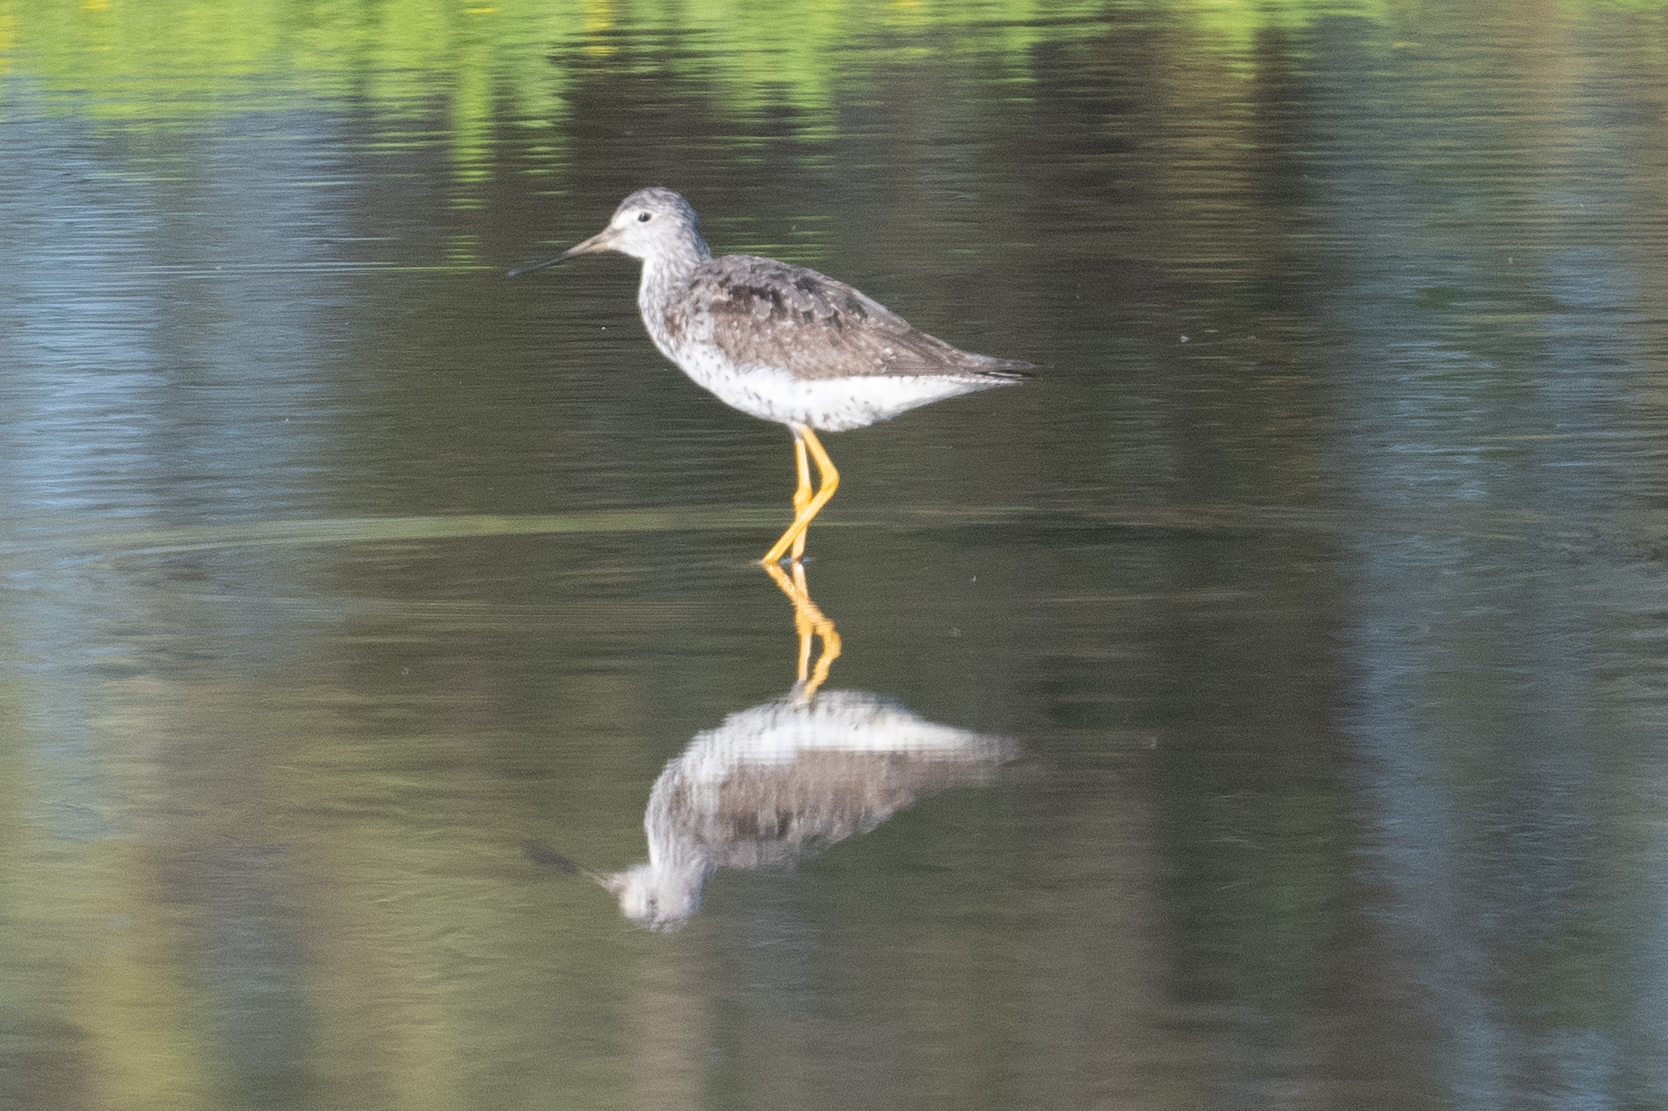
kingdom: Animalia
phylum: Chordata
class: Aves
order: Charadriiformes
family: Scolopacidae
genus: Tringa
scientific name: Tringa melanoleuca
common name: Greater yellowlegs
